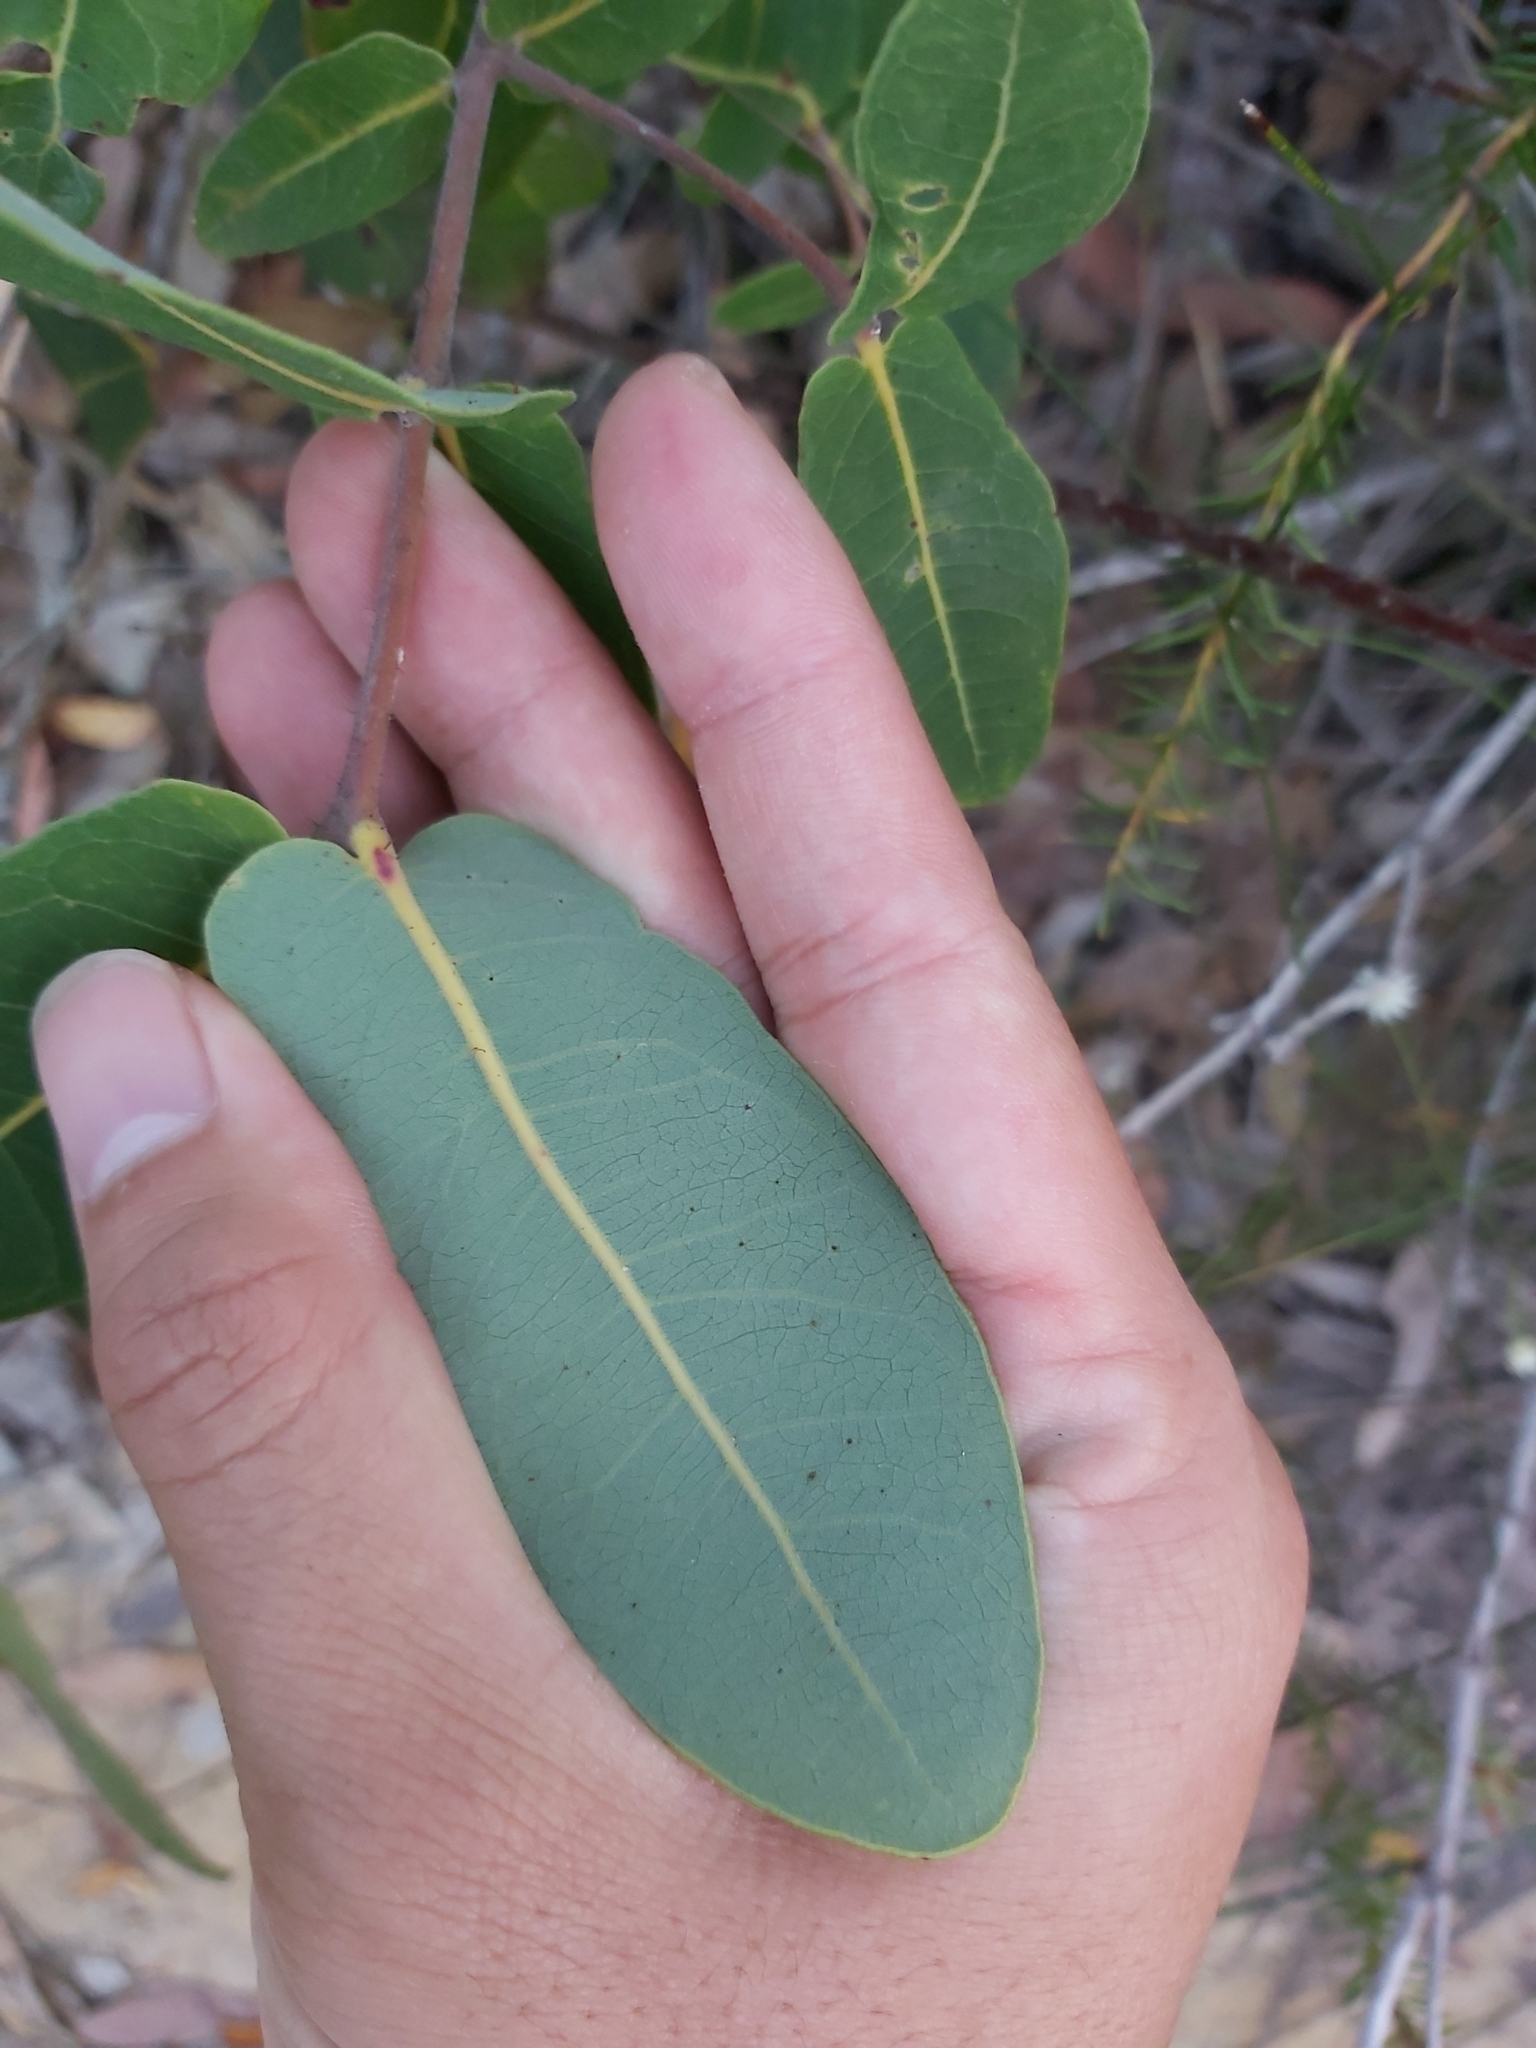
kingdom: Plantae
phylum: Tracheophyta
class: Magnoliopsida
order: Myrtales
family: Myrtaceae
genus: Angophora
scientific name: Angophora hispida
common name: Dwarf-apple
